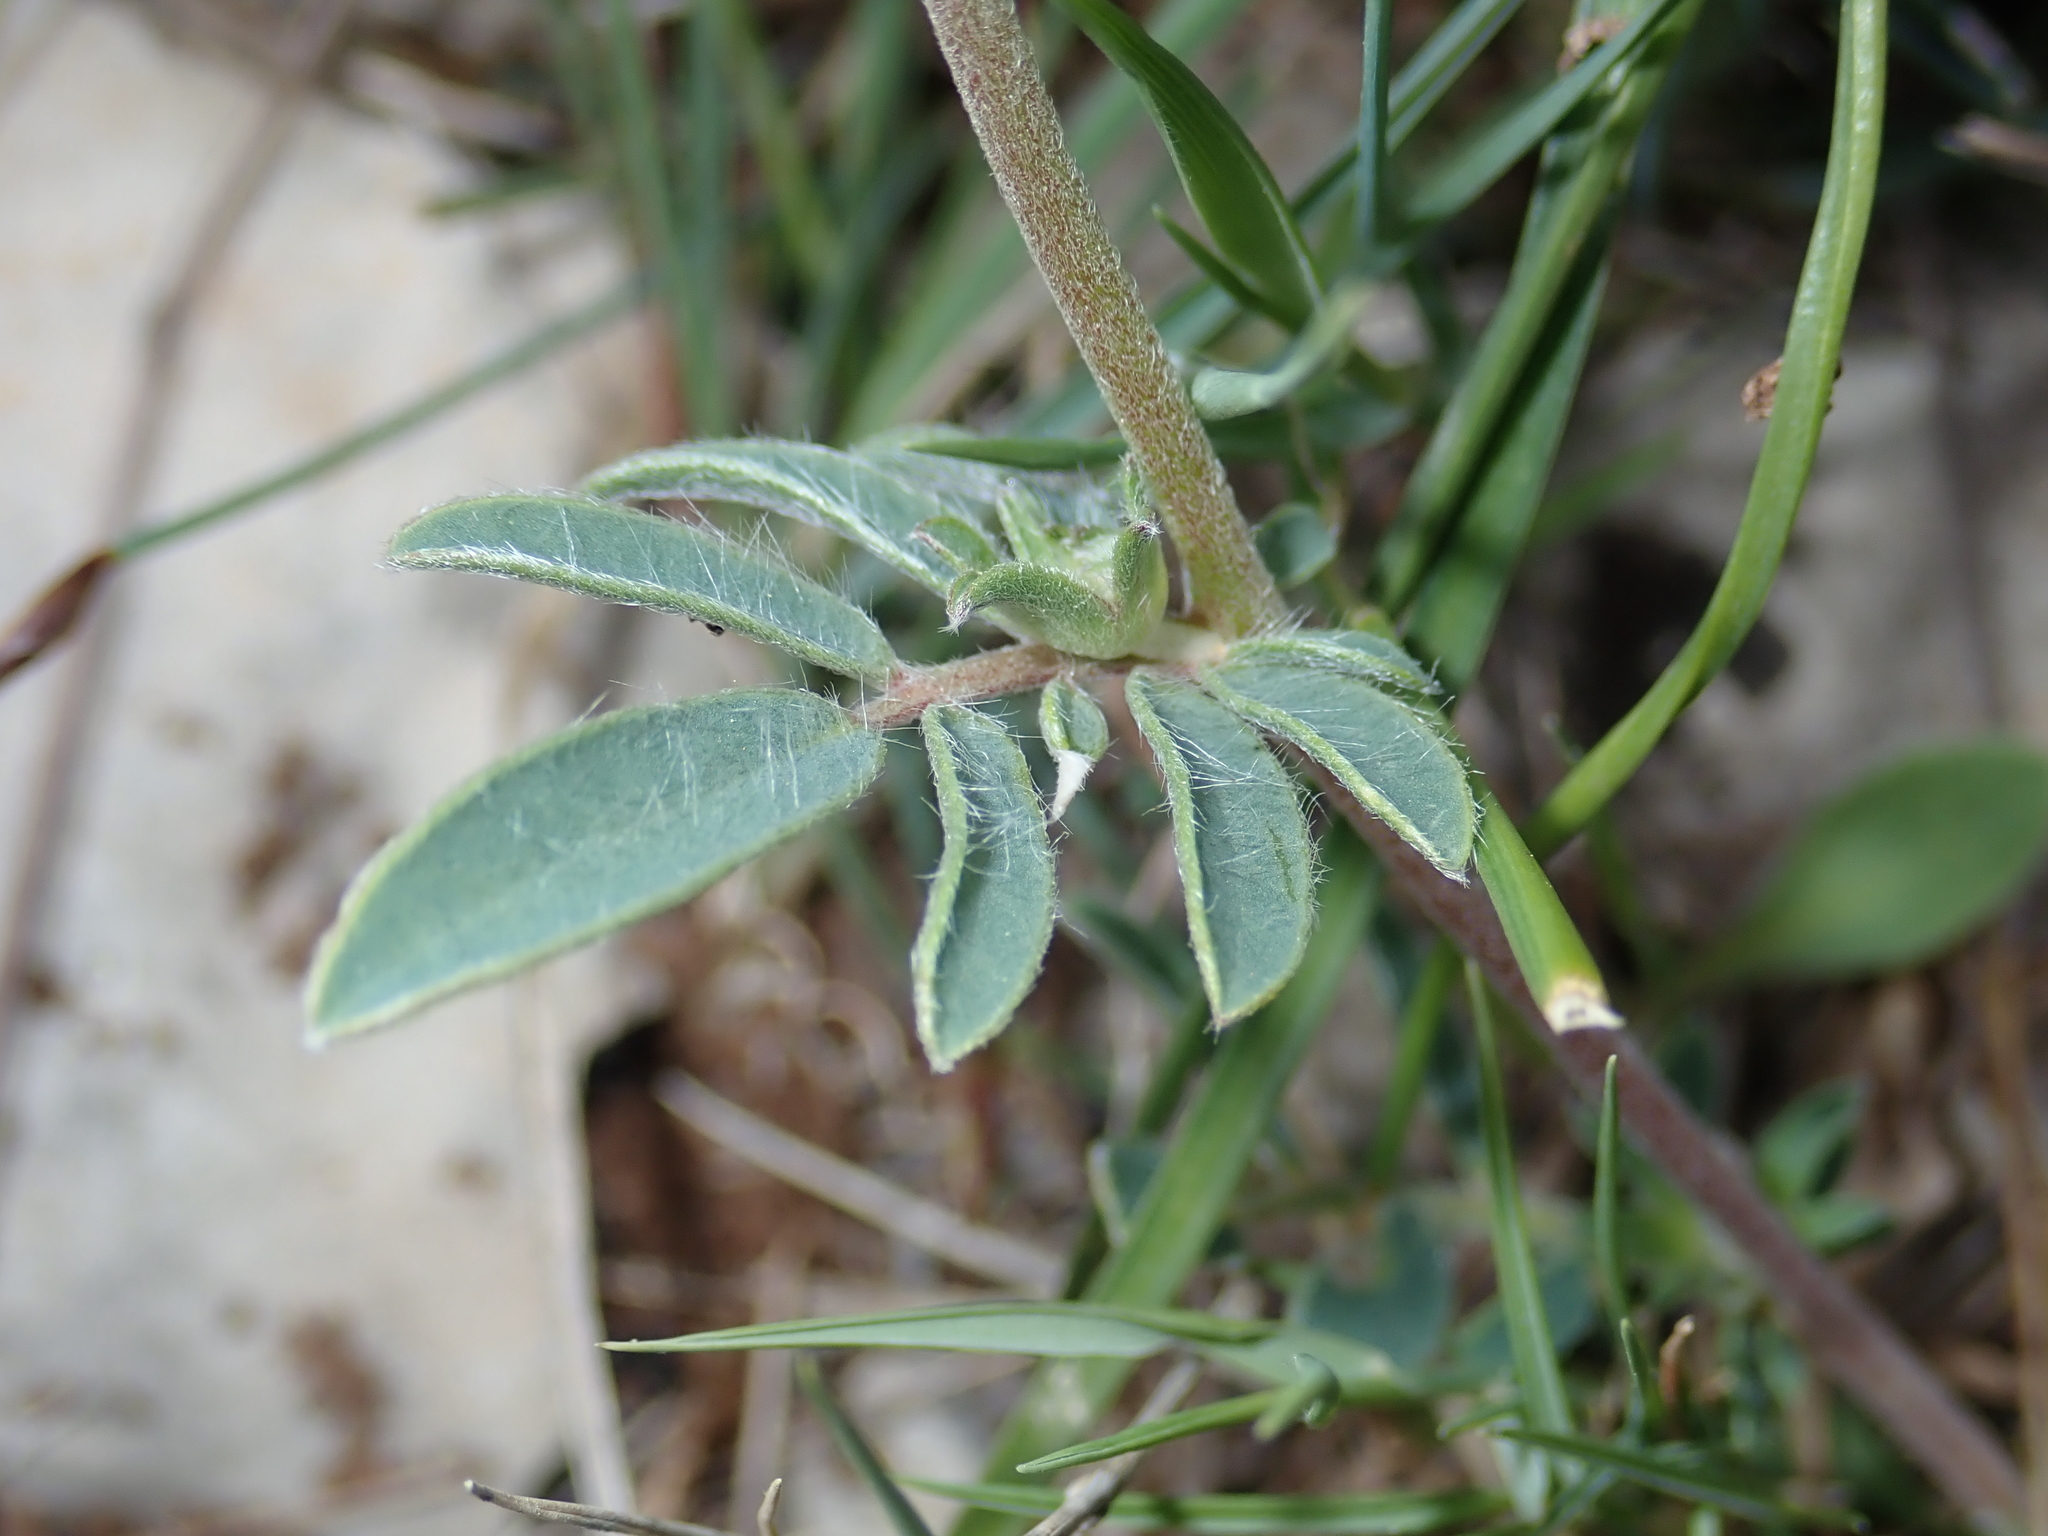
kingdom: Plantae
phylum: Tracheophyta
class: Magnoliopsida
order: Fabales
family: Fabaceae
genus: Anthyllis
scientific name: Anthyllis vulneraria
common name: Kidney vetch
